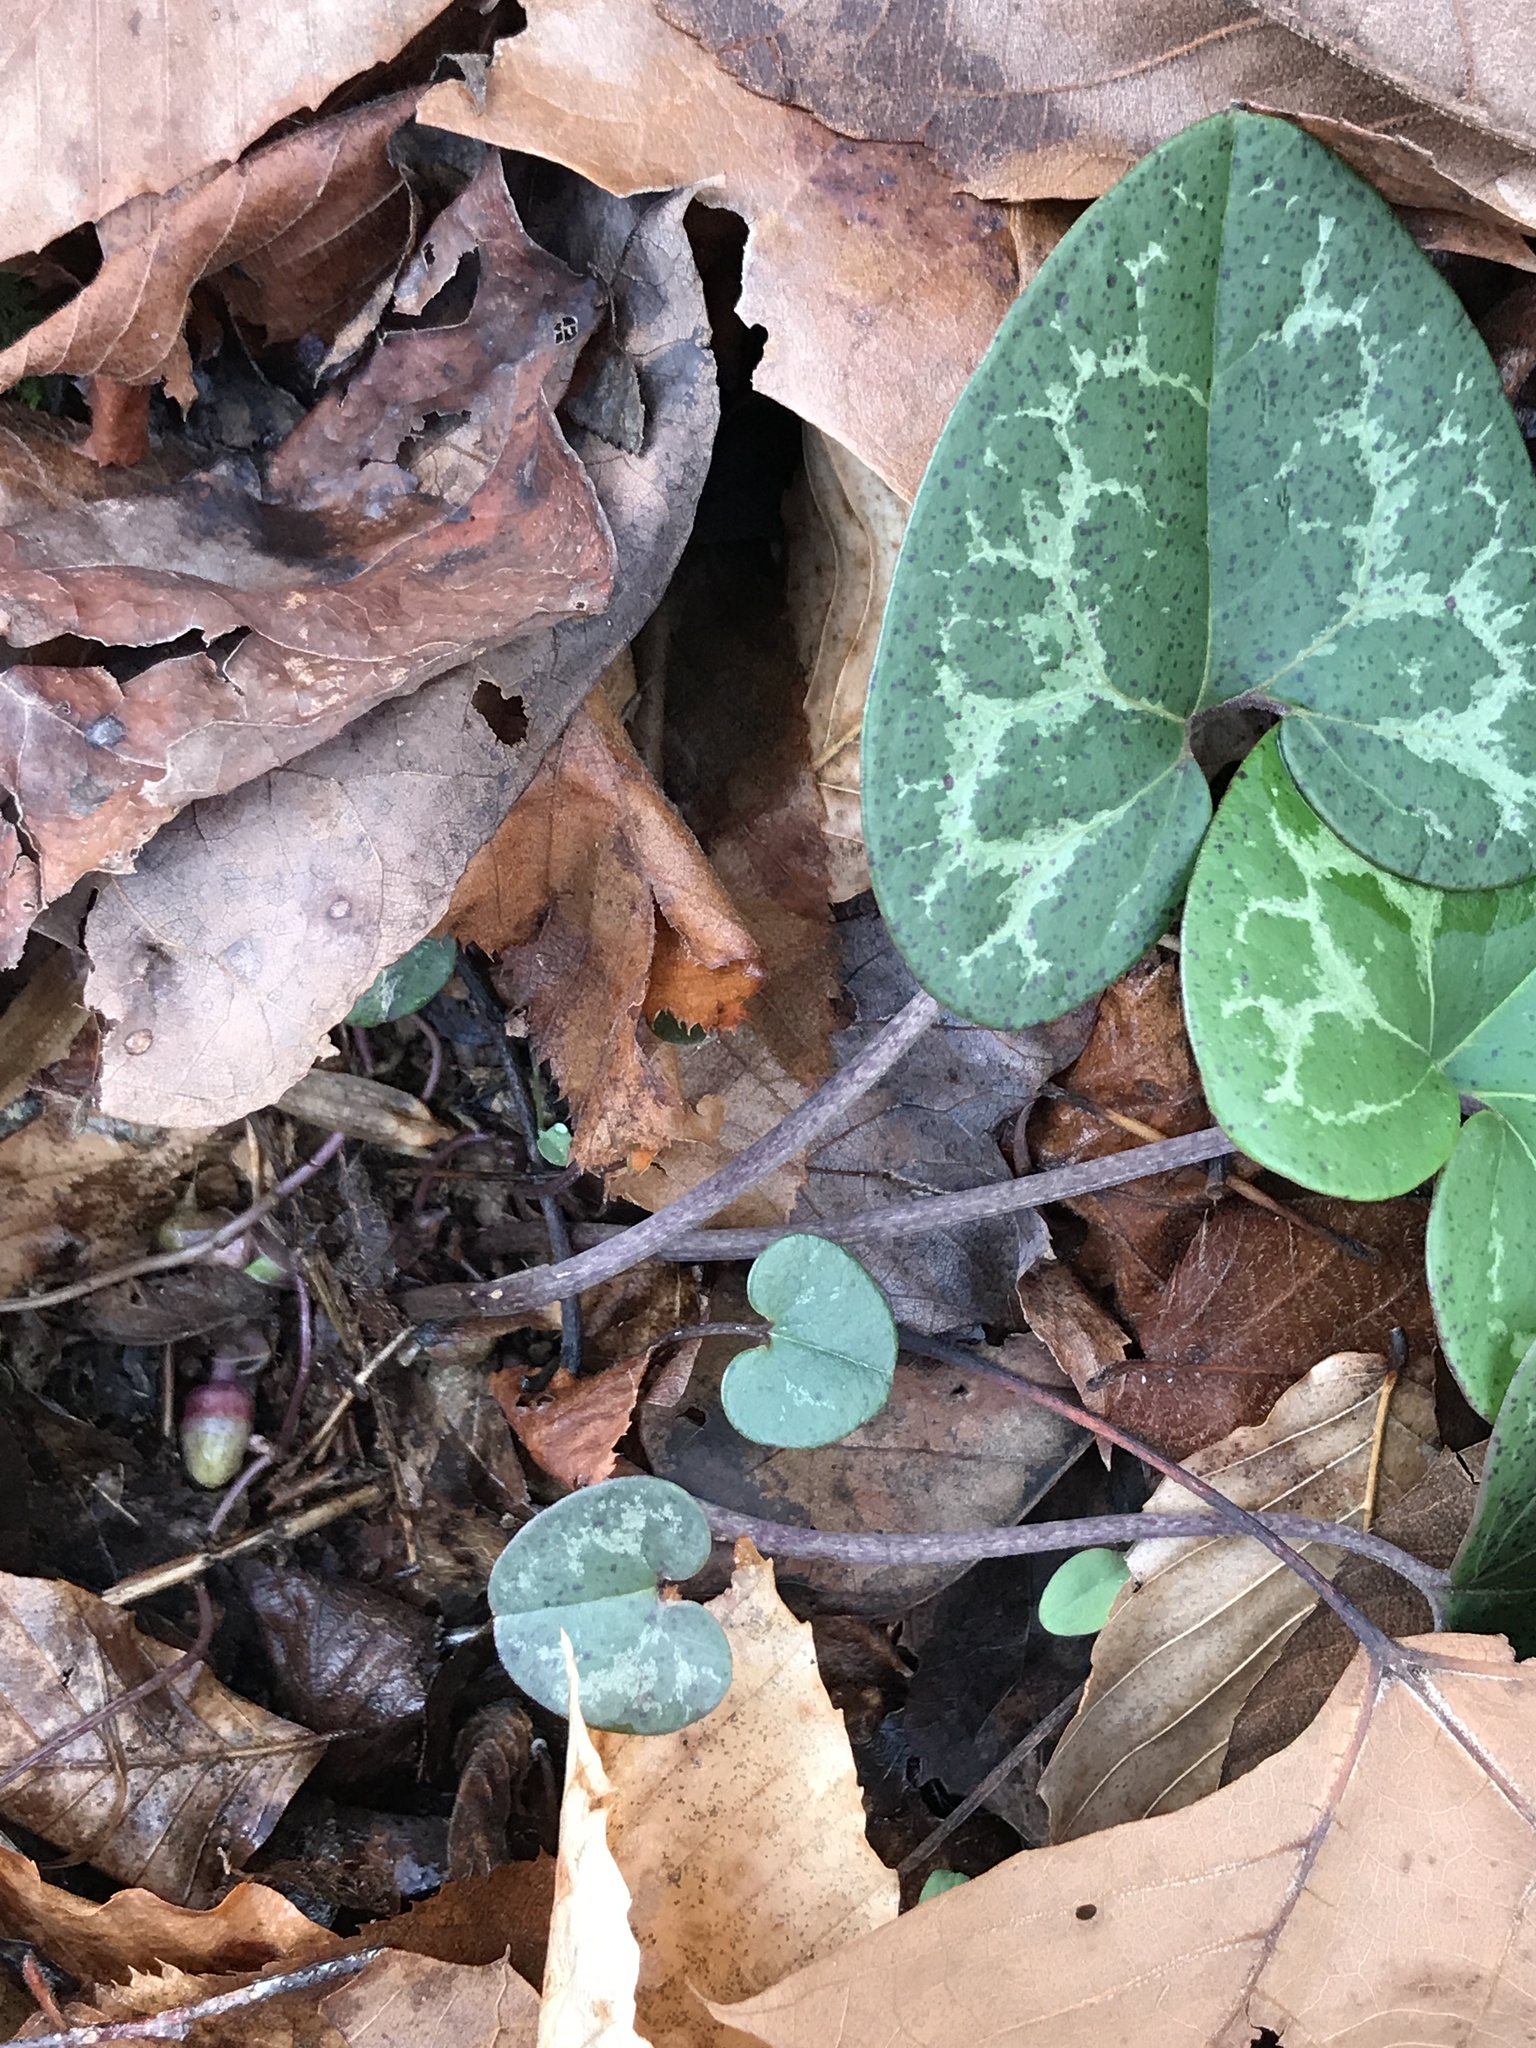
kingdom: Plantae
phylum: Tracheophyta
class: Magnoliopsida
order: Piperales
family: Aristolochiaceae
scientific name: Aristolochiaceae
